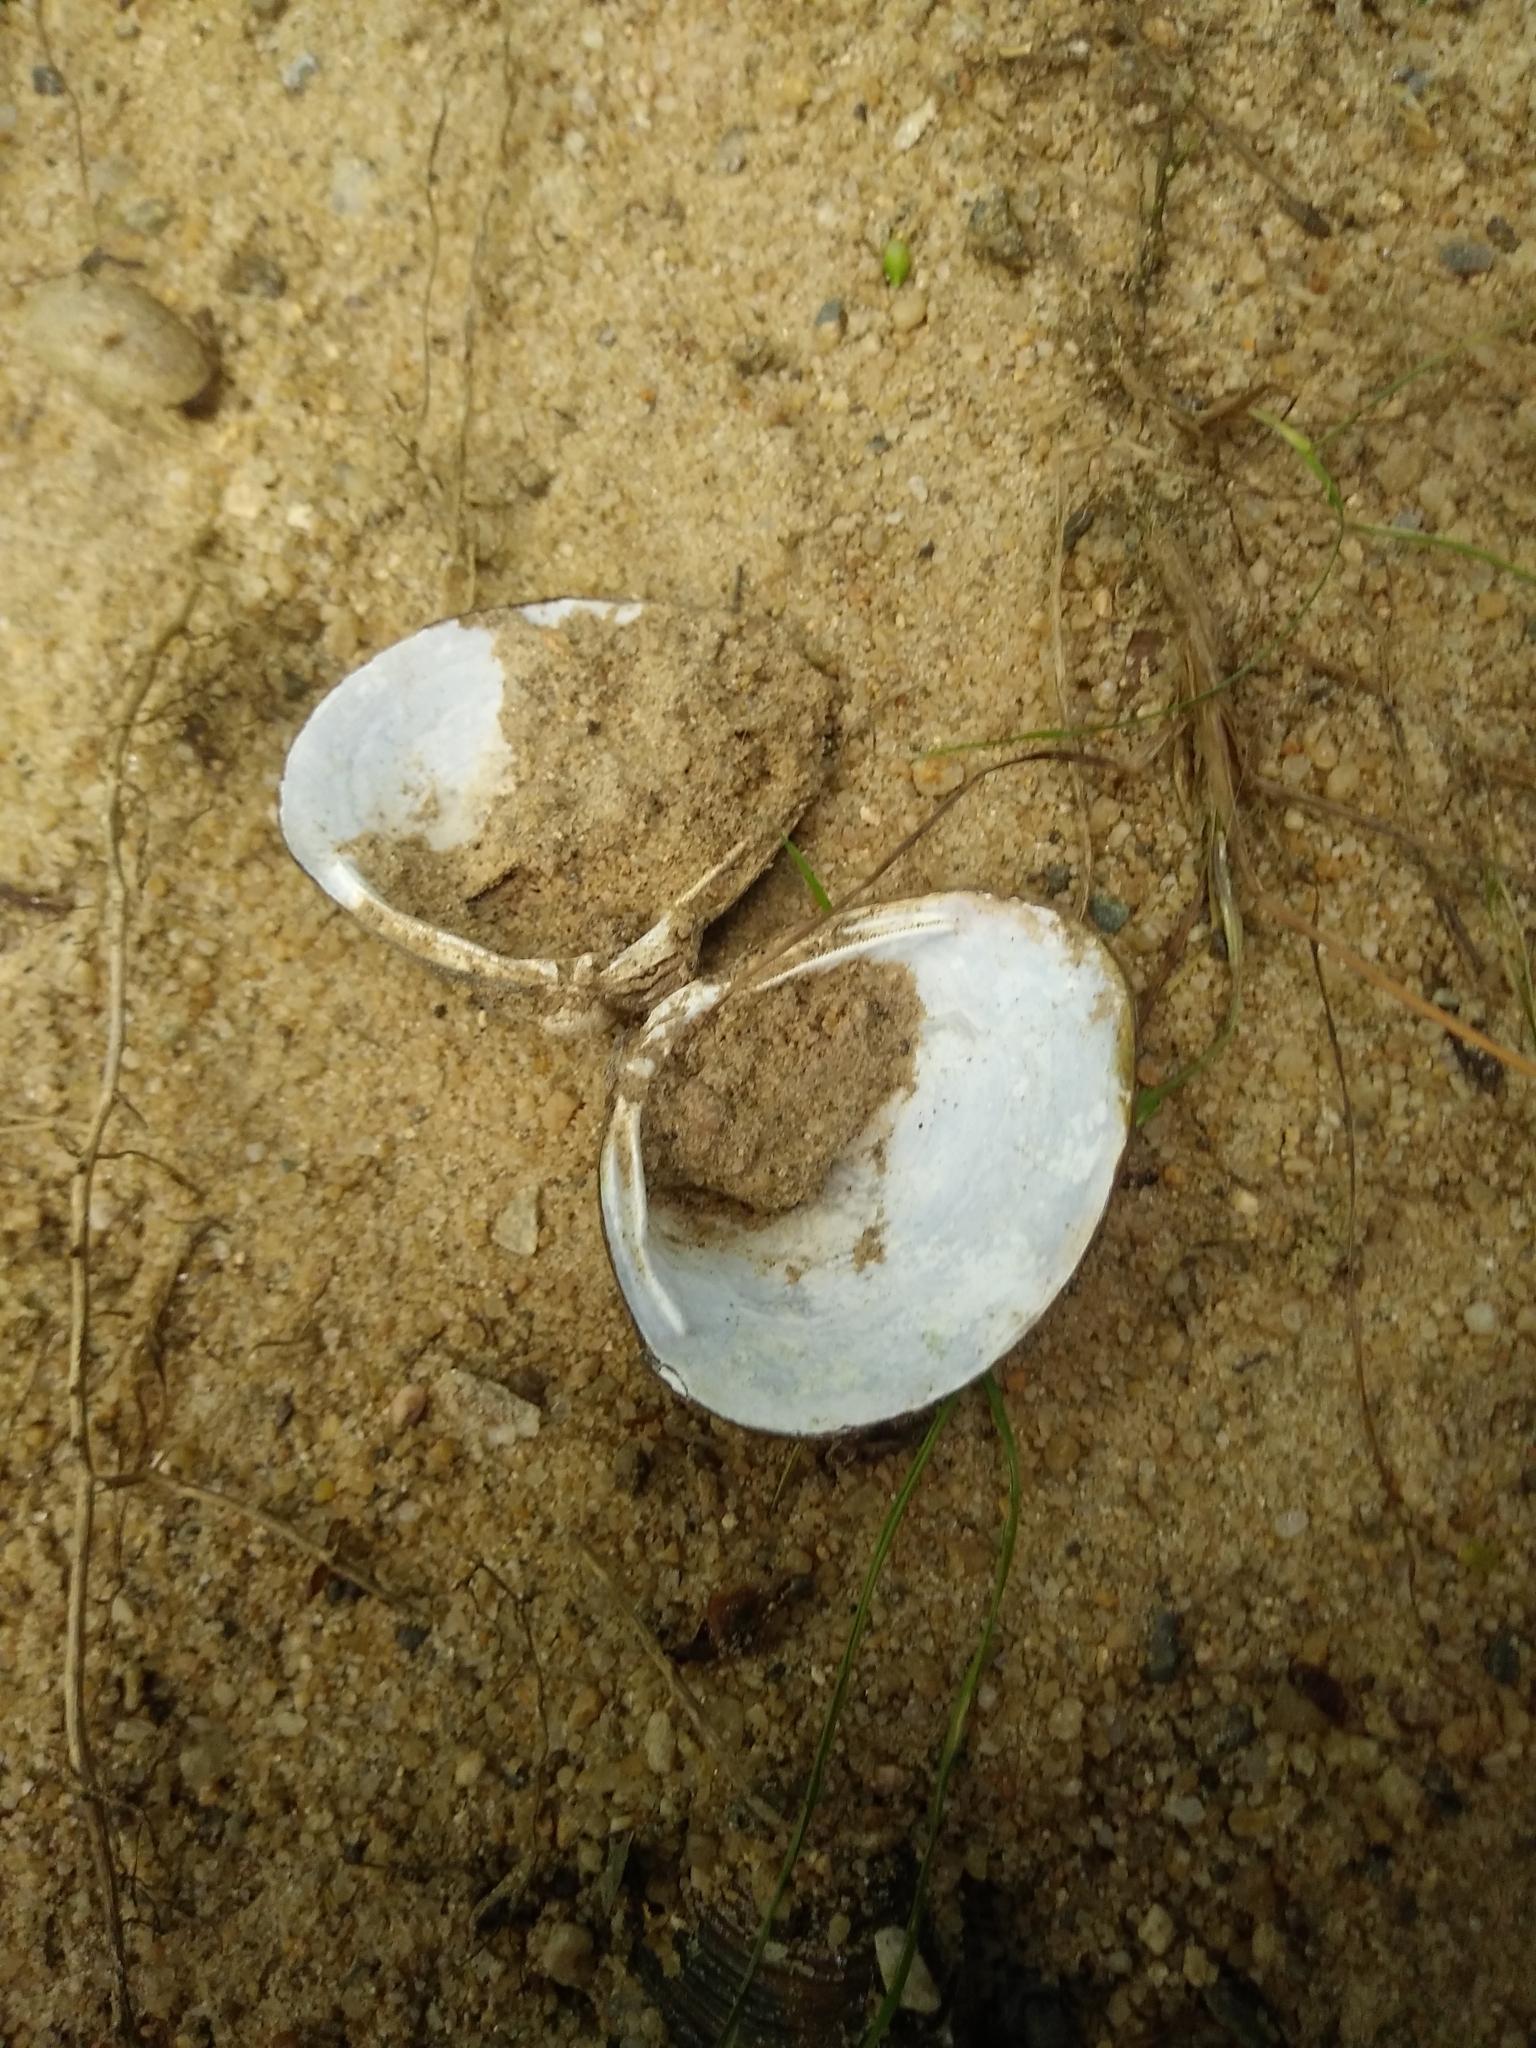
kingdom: Animalia
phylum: Mollusca
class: Bivalvia
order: Venerida
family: Cyrenidae
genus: Corbicula
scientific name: Corbicula fluminea
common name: Asian clam
